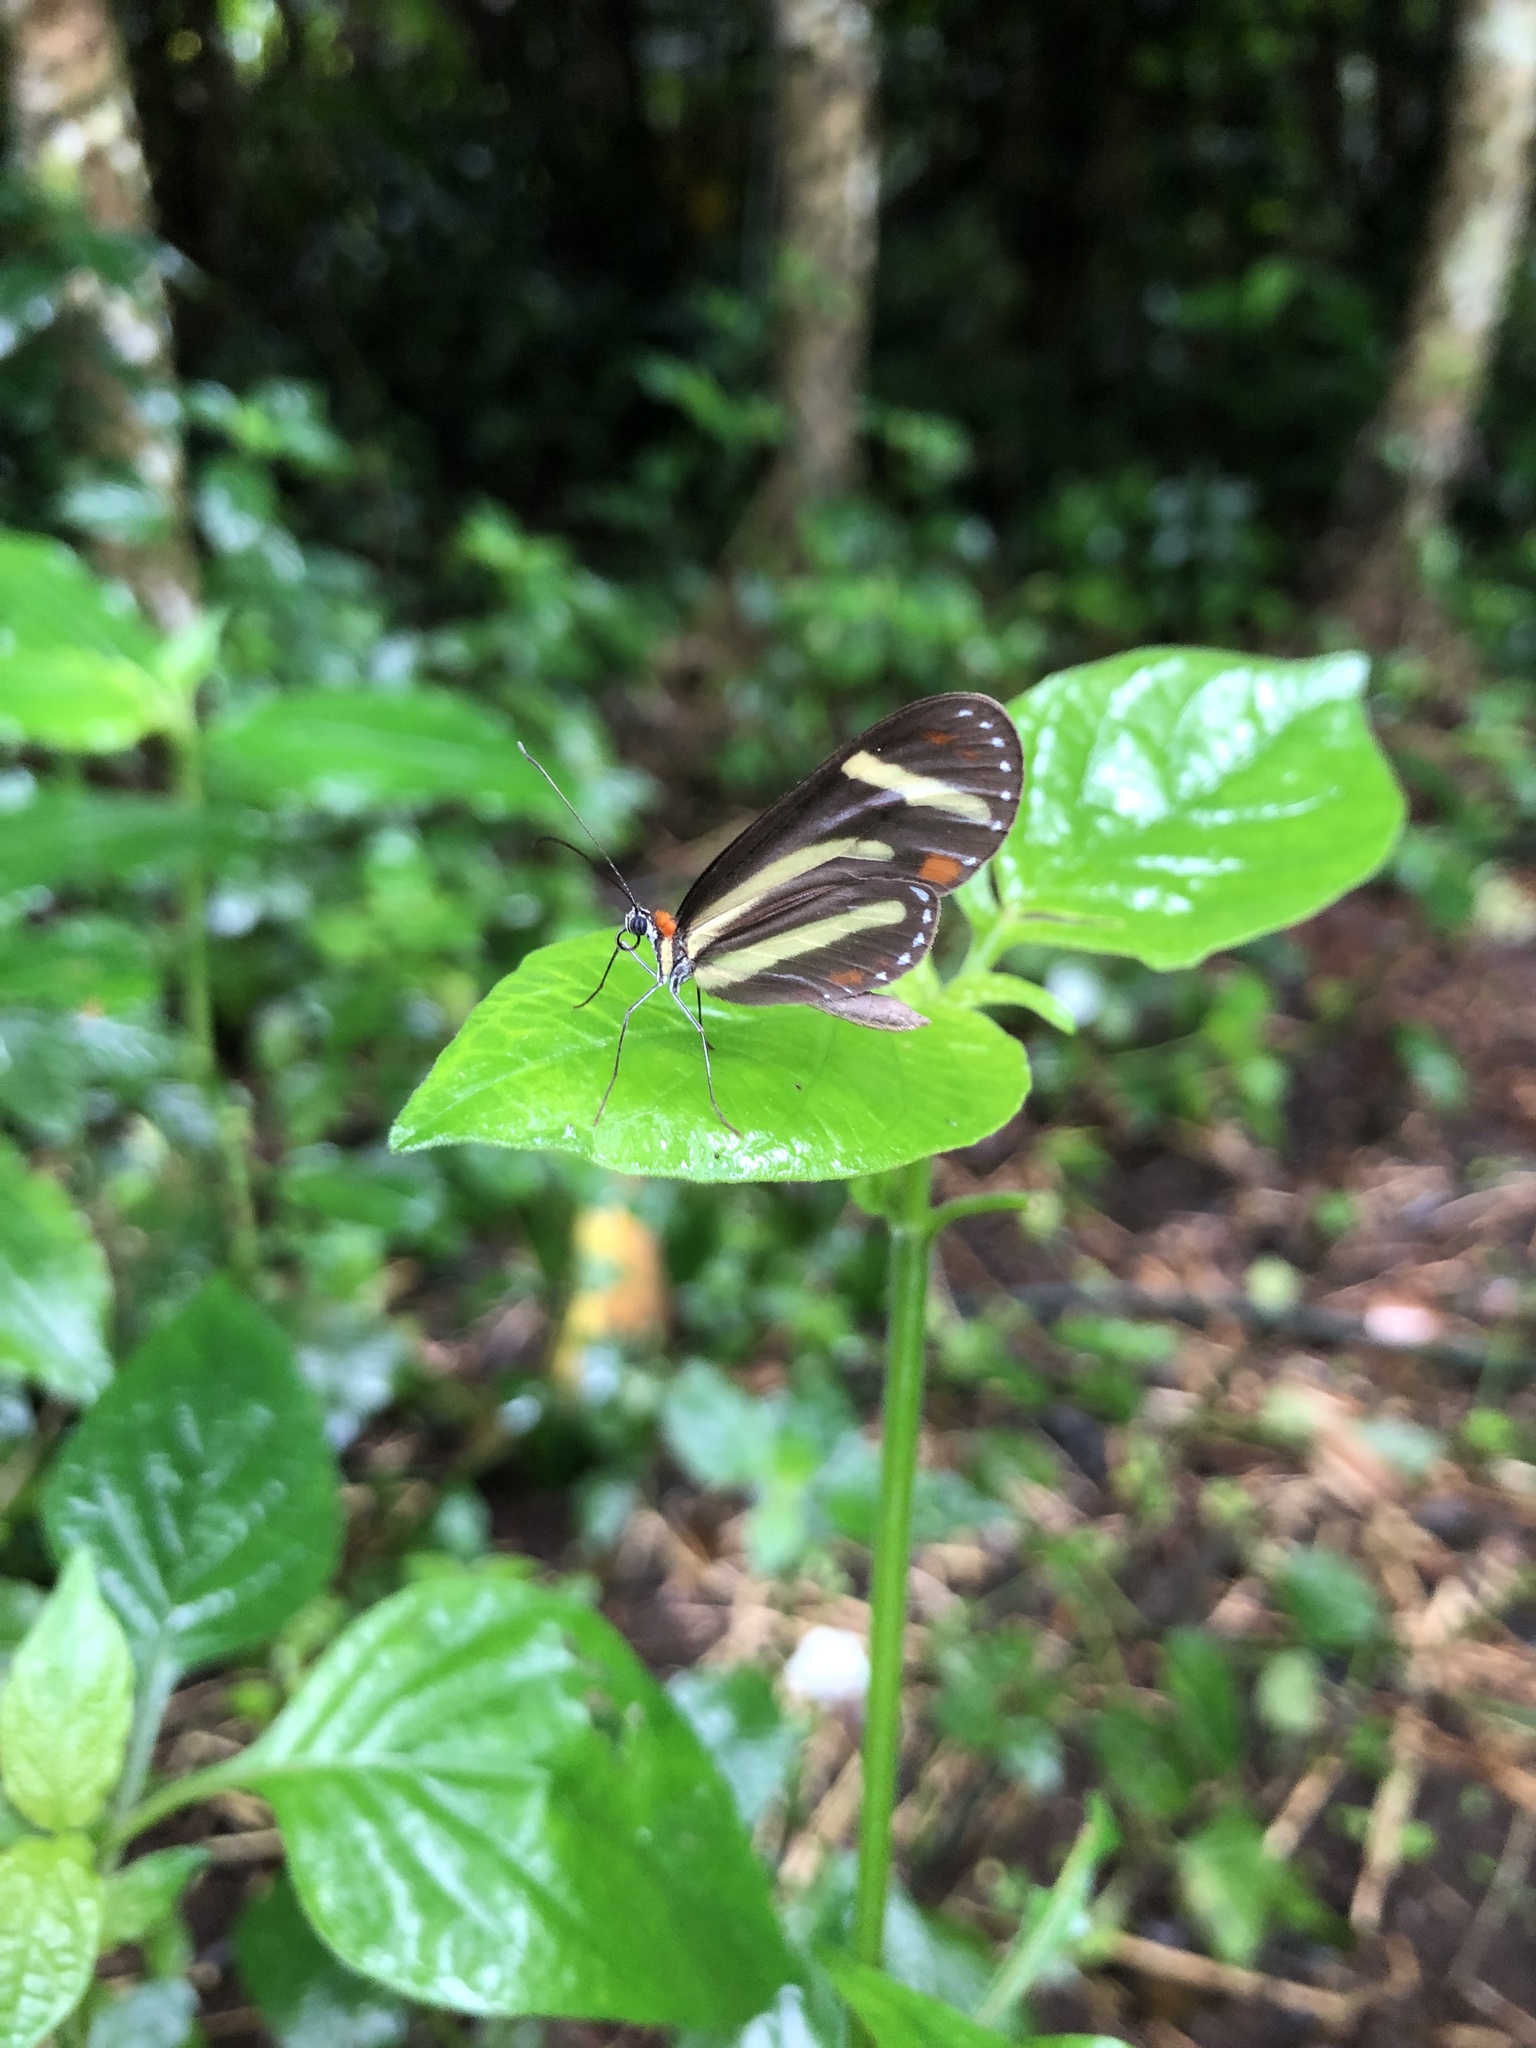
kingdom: Animalia
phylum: Arthropoda
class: Insecta
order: Lepidoptera
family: Nymphalidae
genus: Scada
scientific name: Scada
